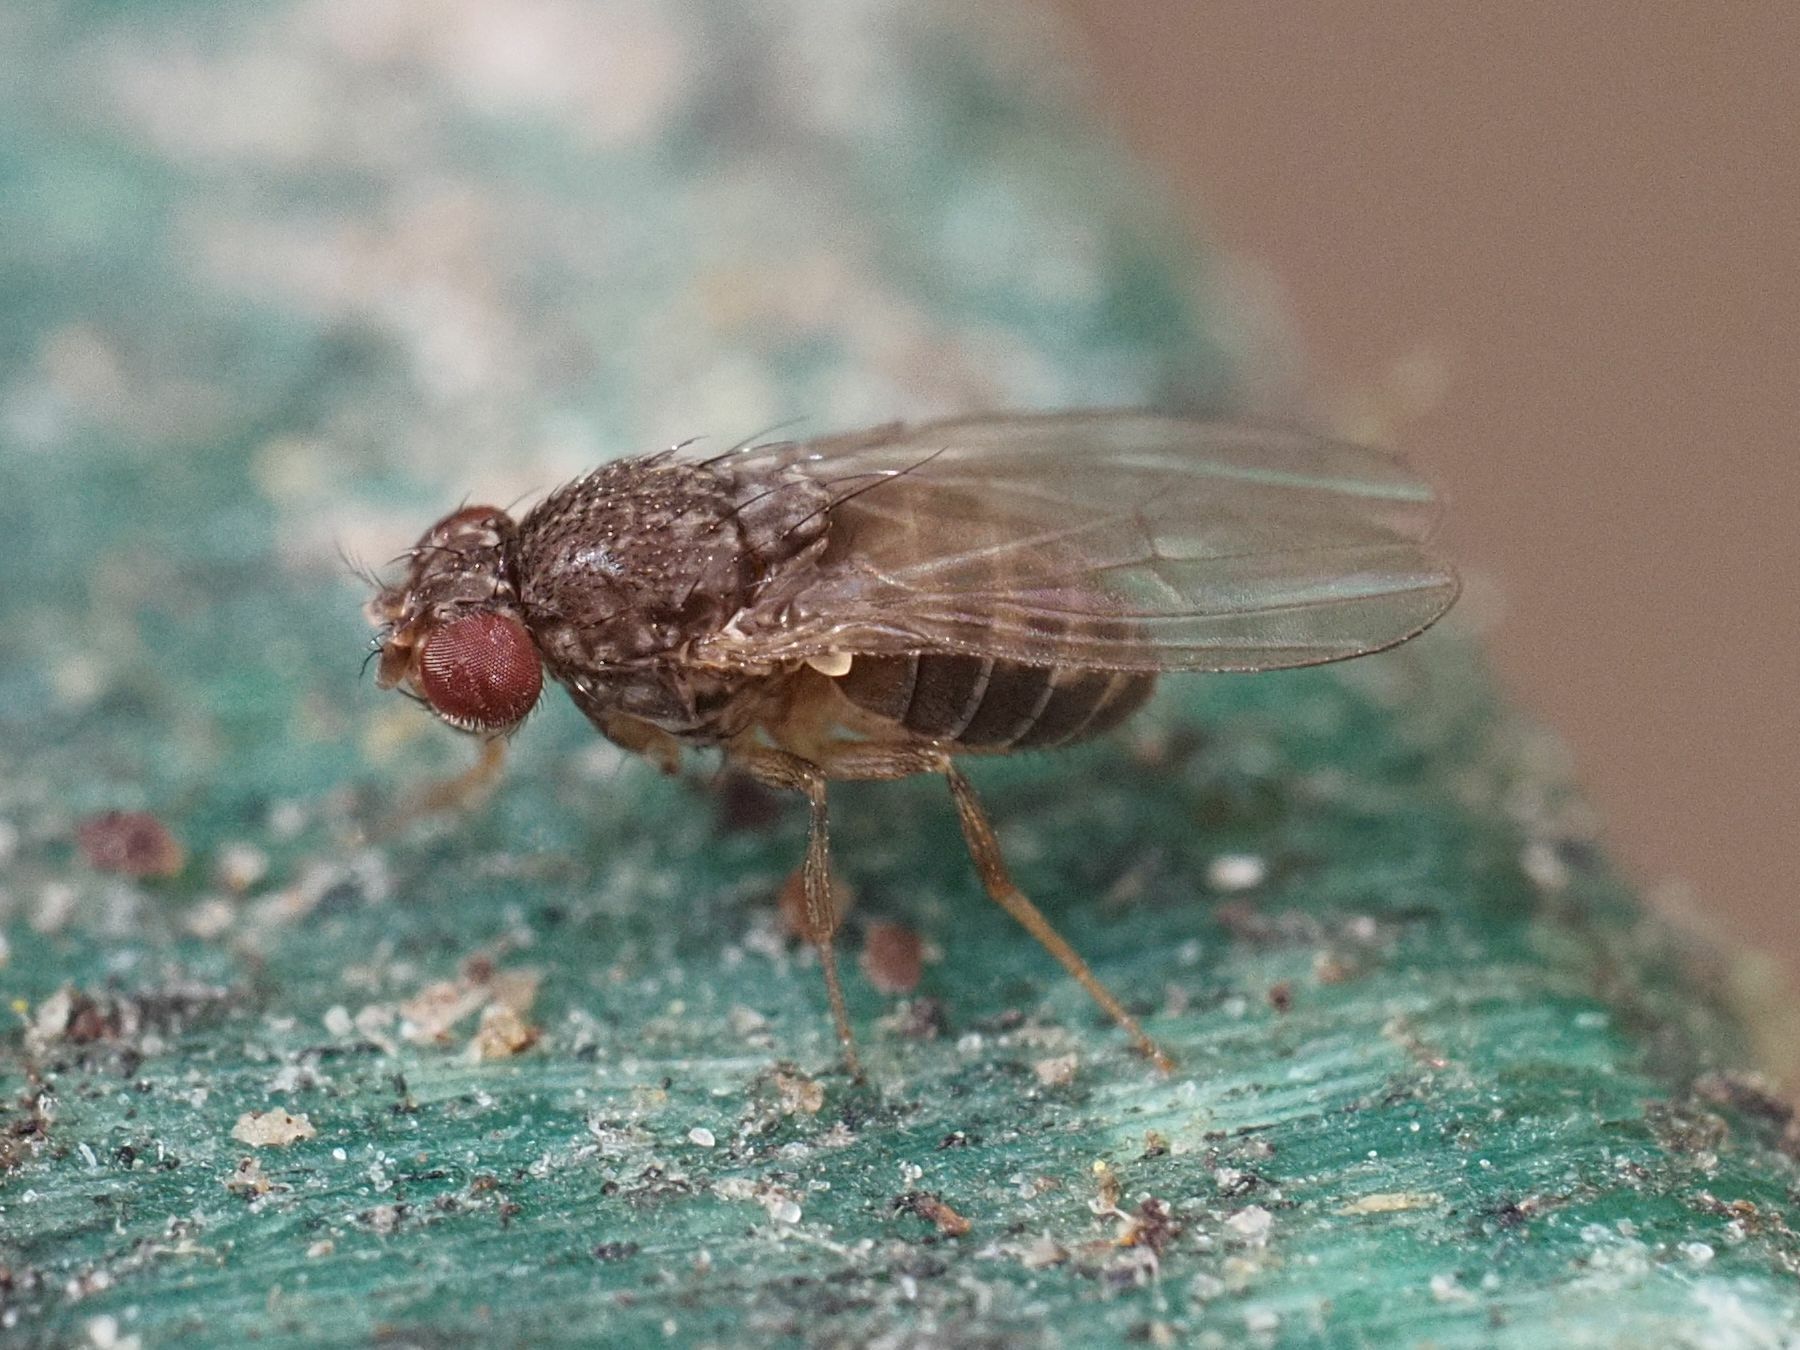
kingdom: Animalia
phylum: Arthropoda
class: Insecta
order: Diptera
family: Drosophilidae
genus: Drosophila
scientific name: Drosophila hydei
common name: Pomace fly
